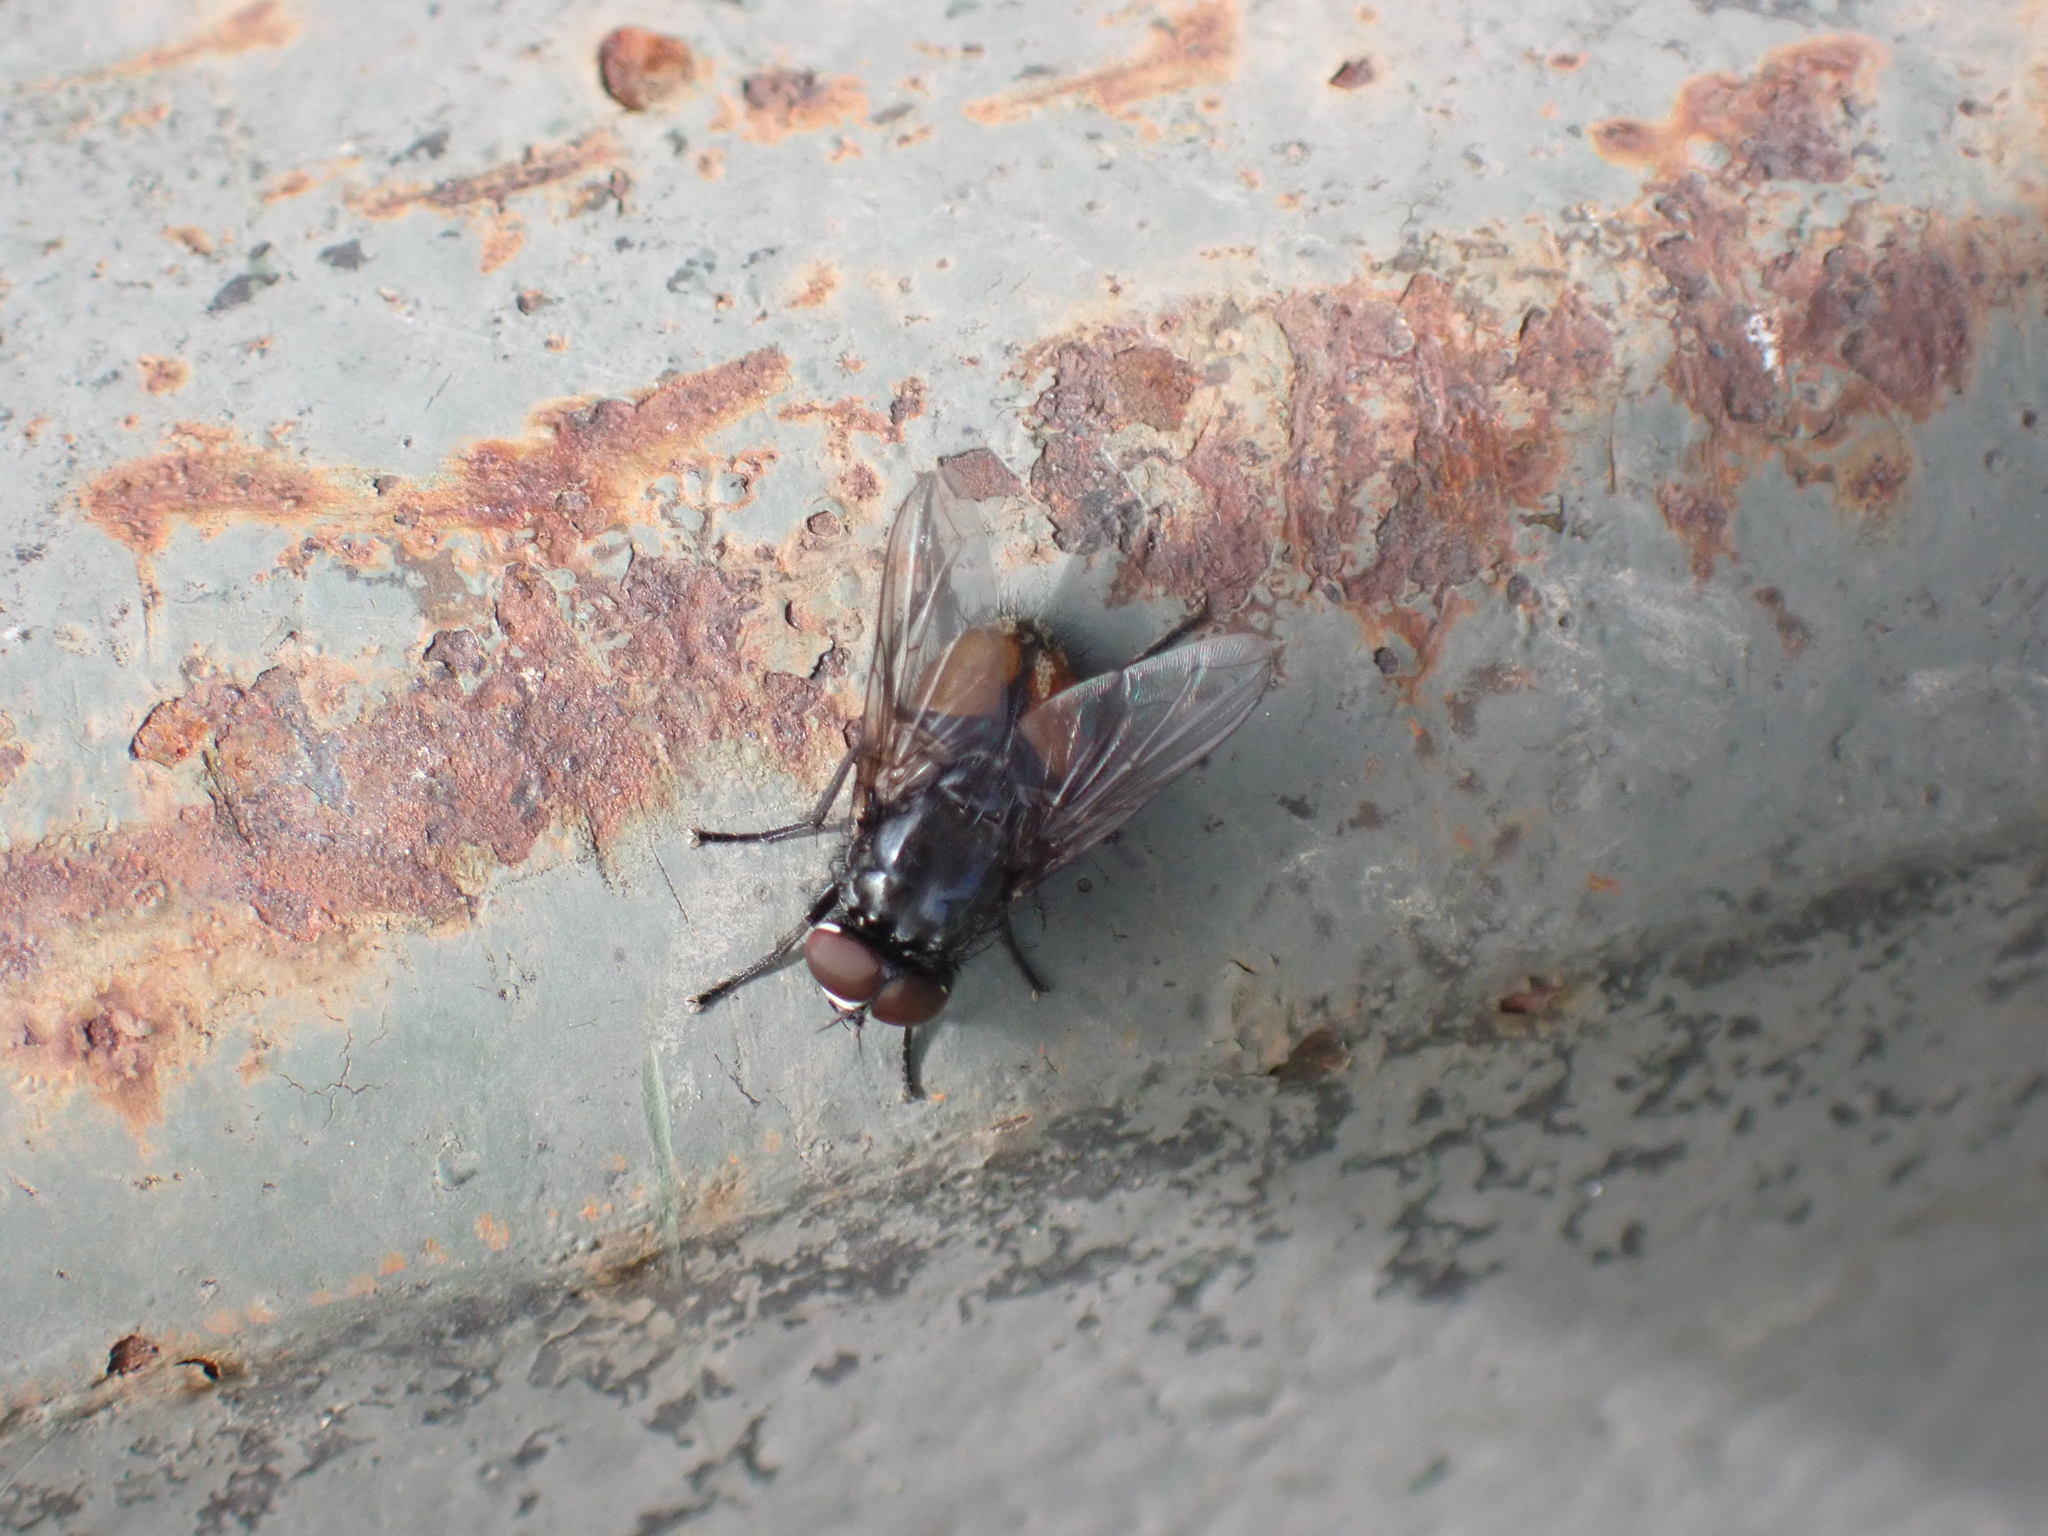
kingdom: Animalia
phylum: Arthropoda
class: Insecta
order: Diptera
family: Muscidae
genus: Musca
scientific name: Musca autumnalis
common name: Face fly
